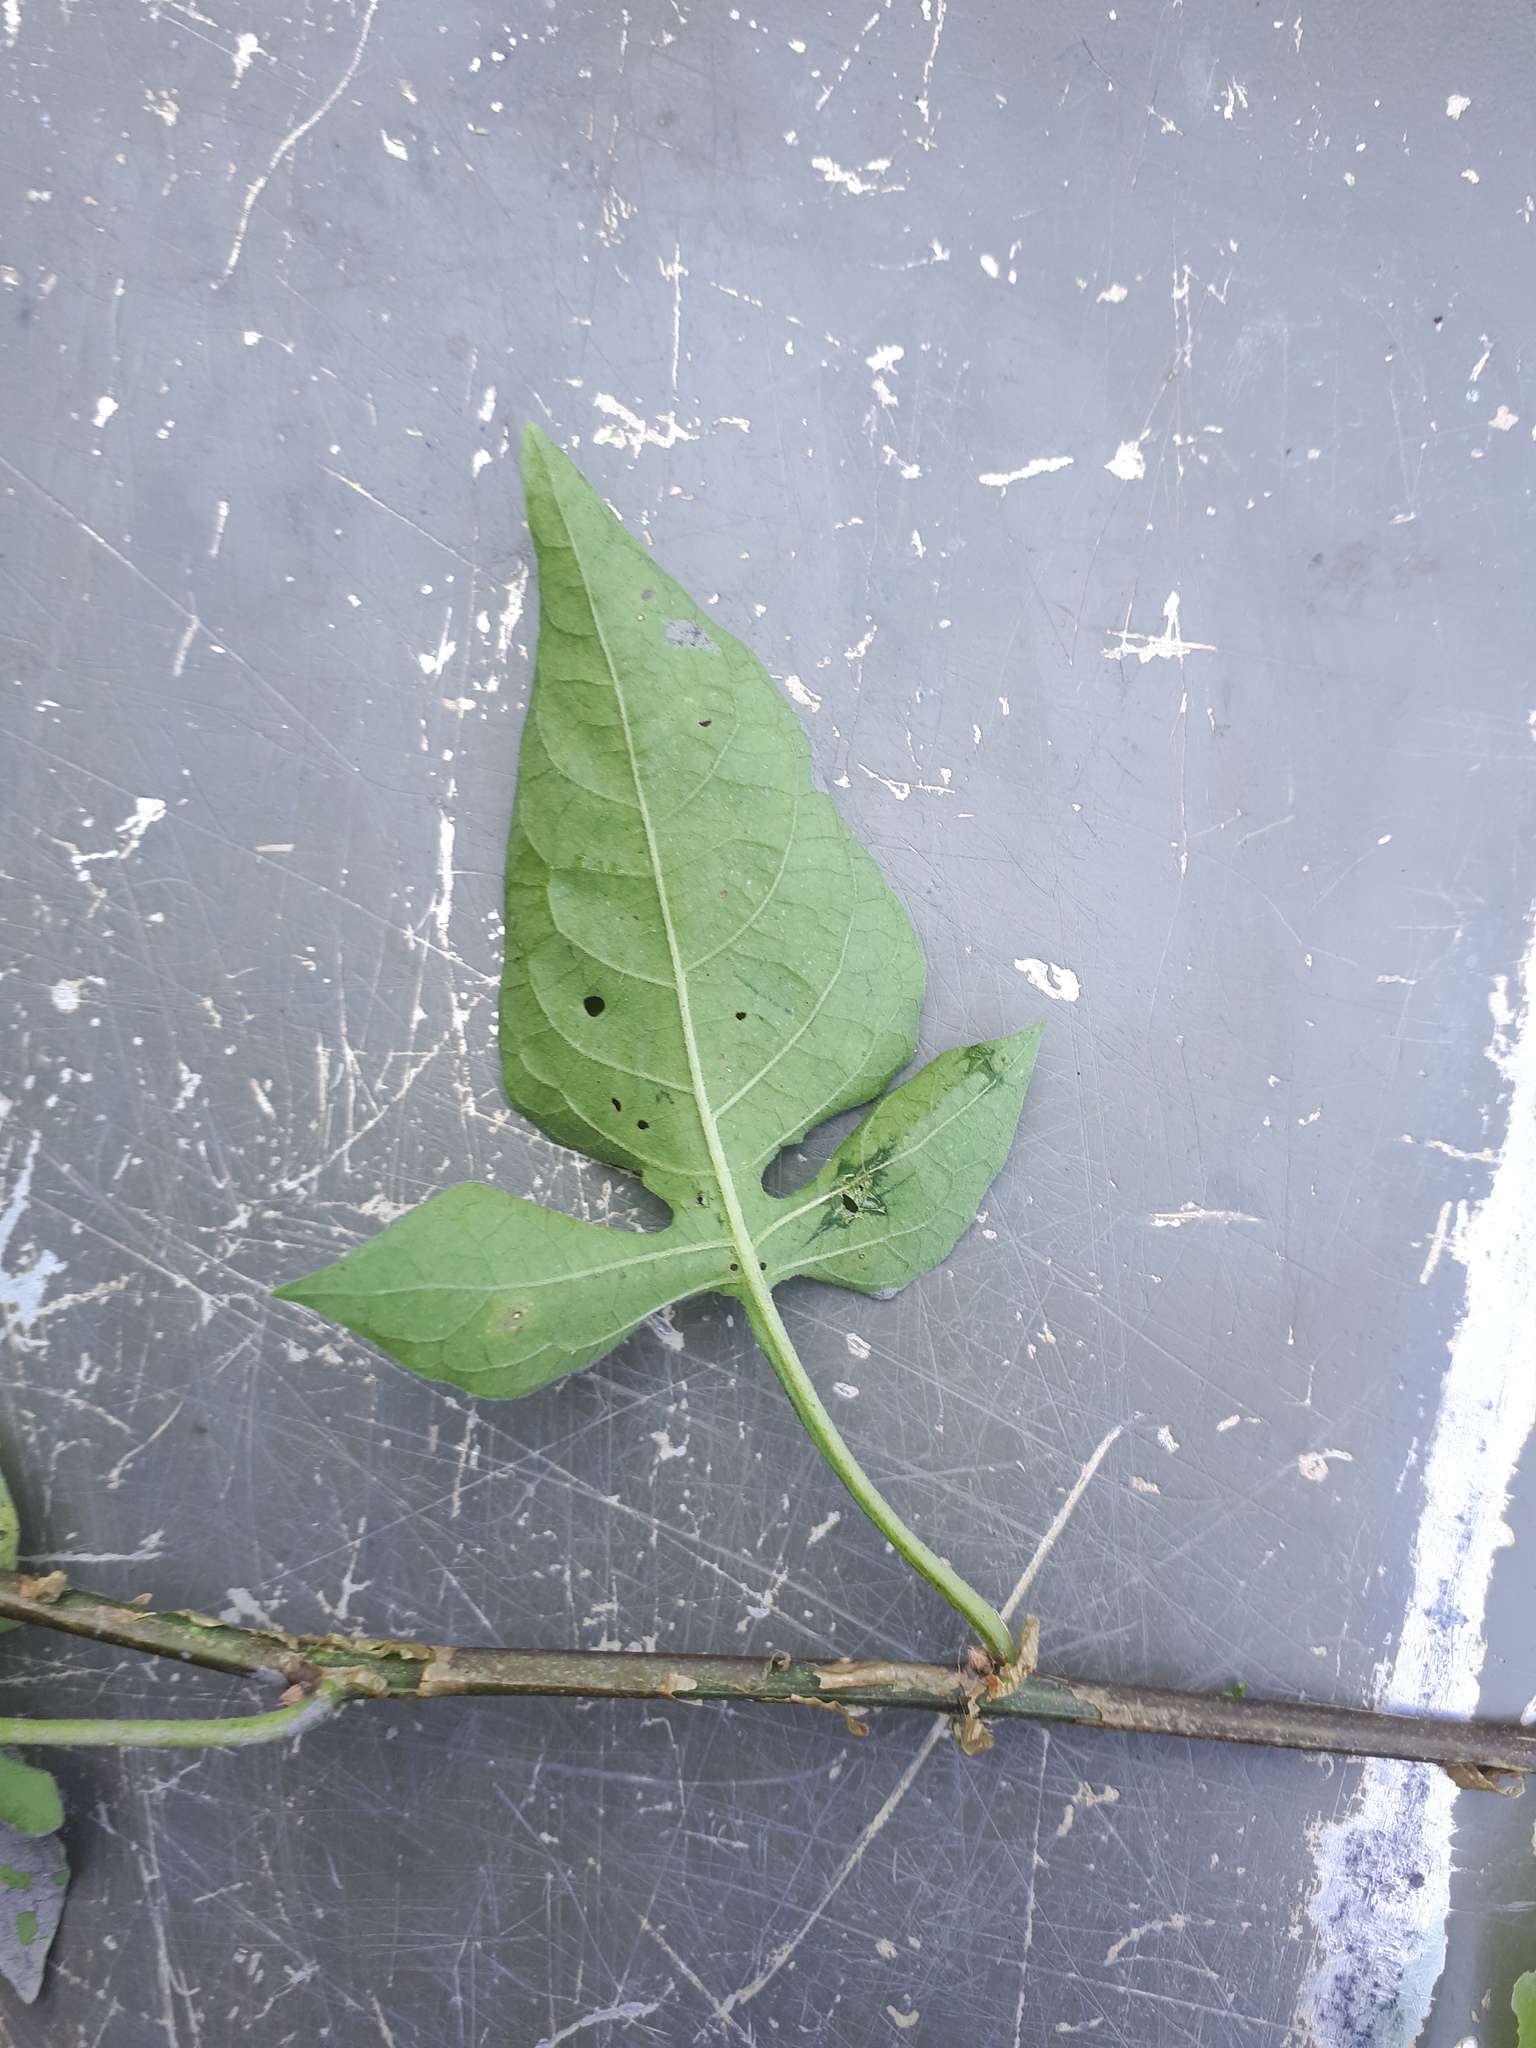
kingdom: Plantae
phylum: Tracheophyta
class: Magnoliopsida
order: Solanales
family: Solanaceae
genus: Solanum
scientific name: Solanum dulcamara
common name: Climbing nightshade
